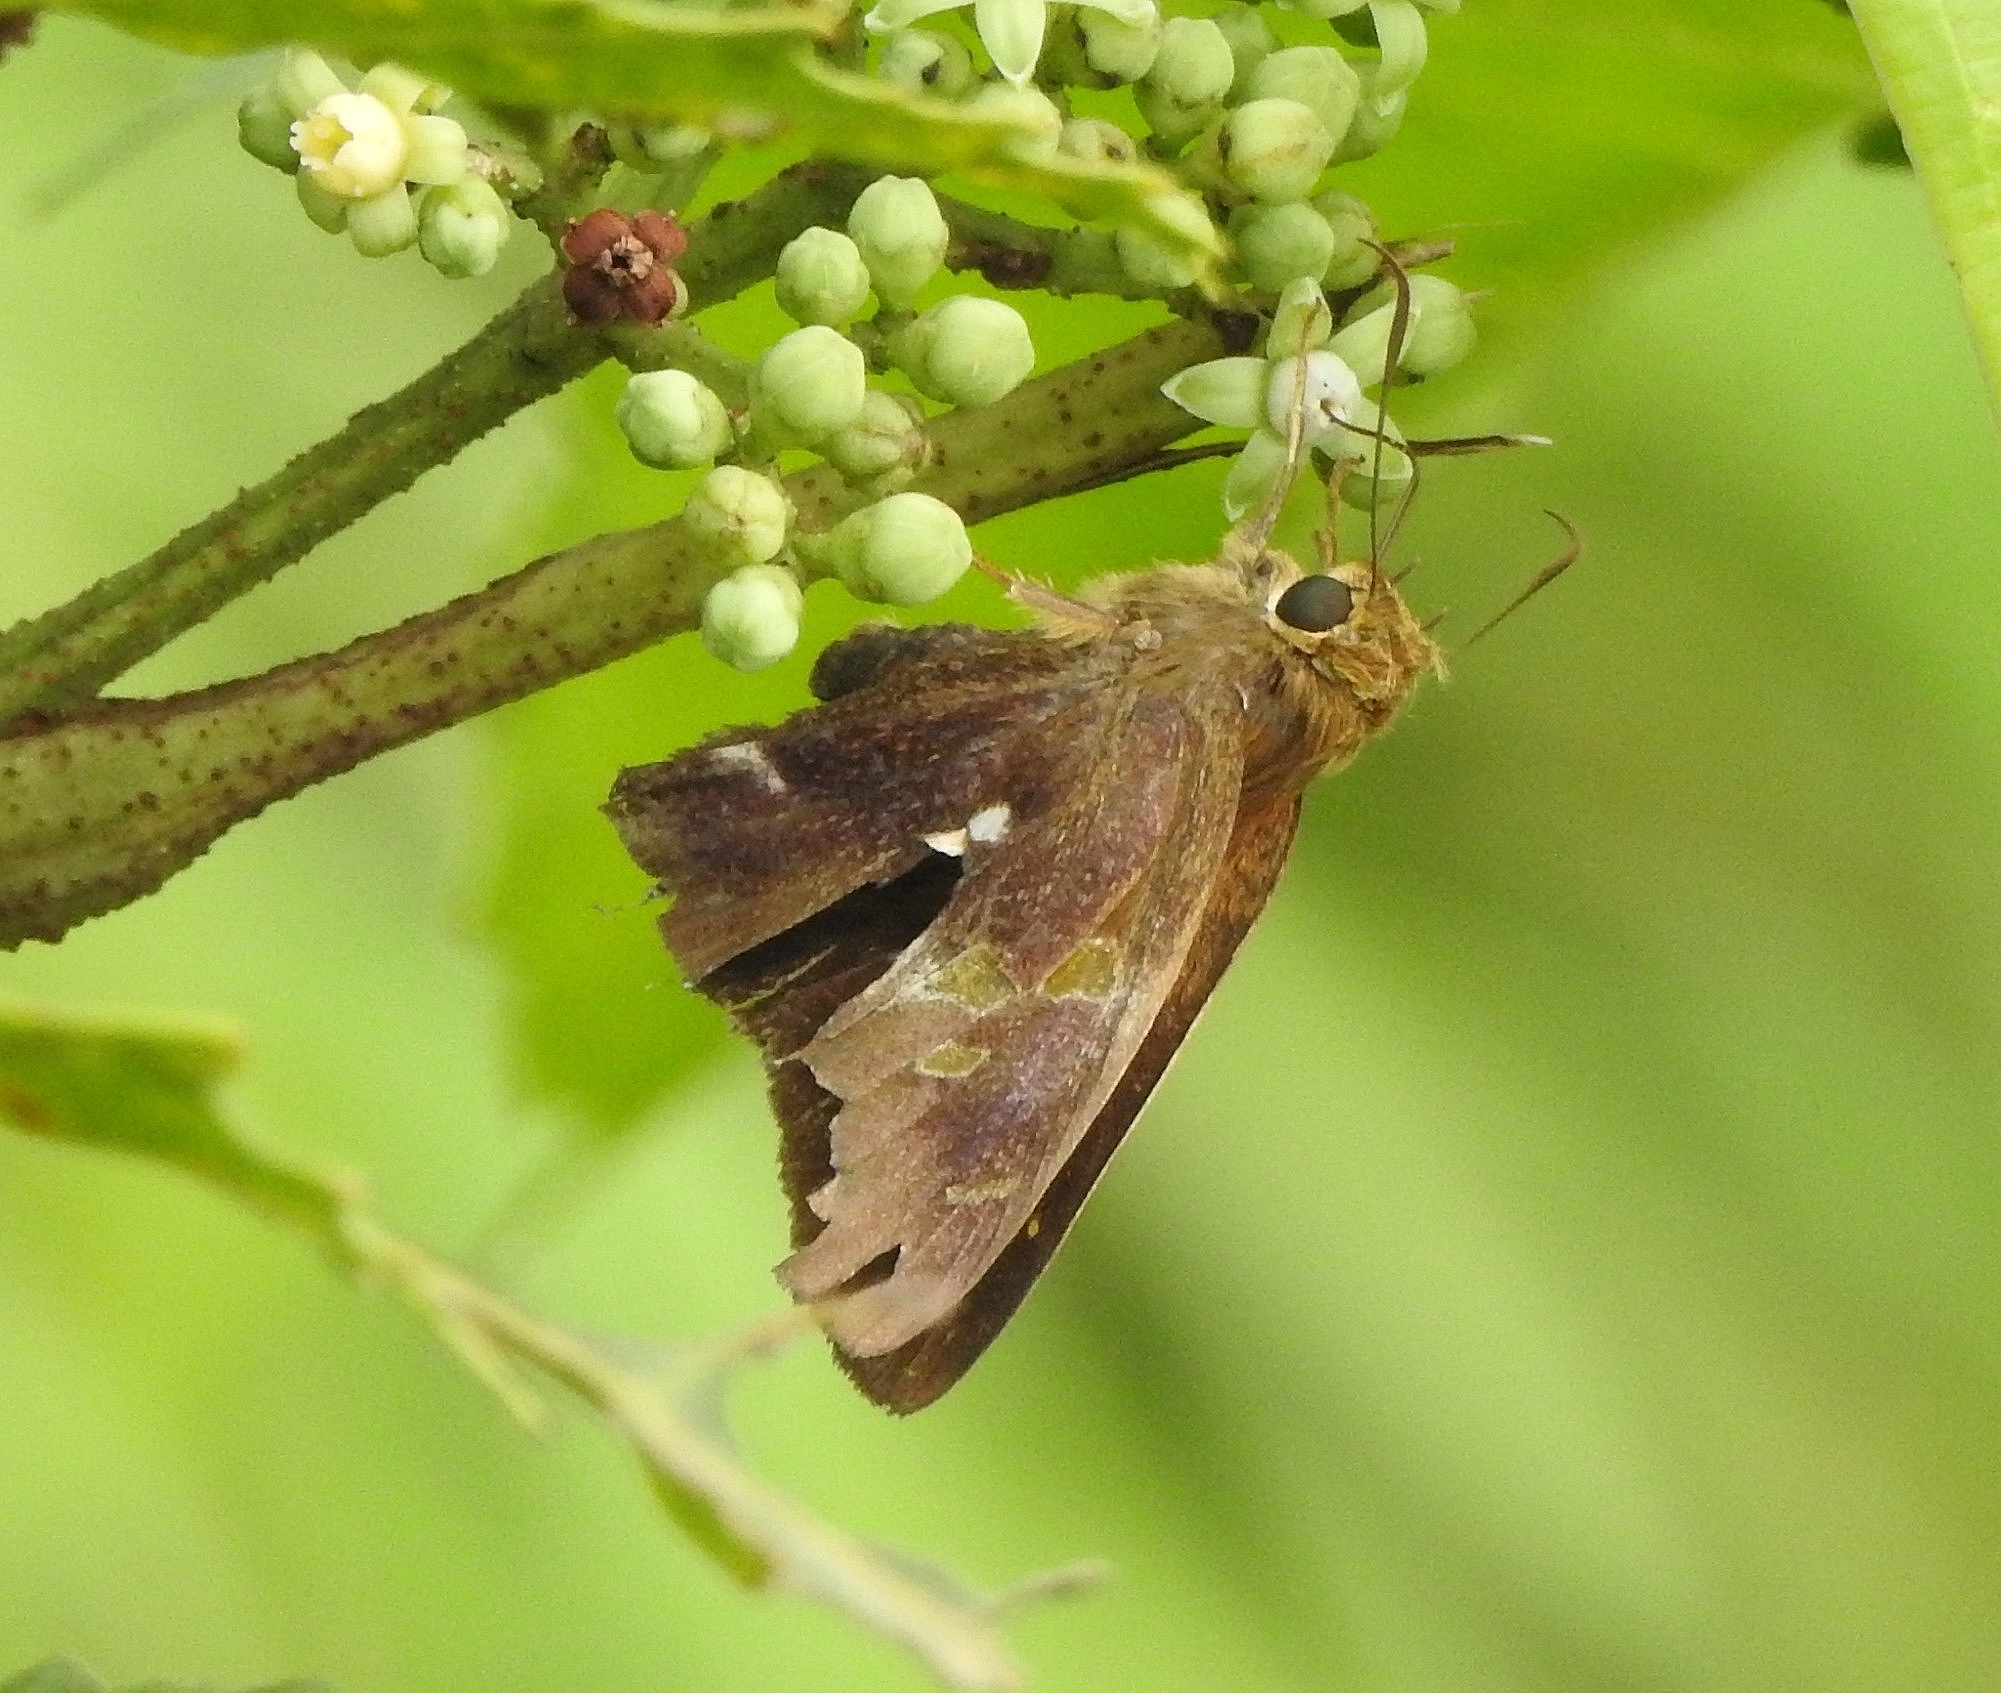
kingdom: Animalia
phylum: Arthropoda
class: Insecta
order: Lepidoptera
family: Hesperiidae
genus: Hasora
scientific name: Hasora badra
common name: Common awl
